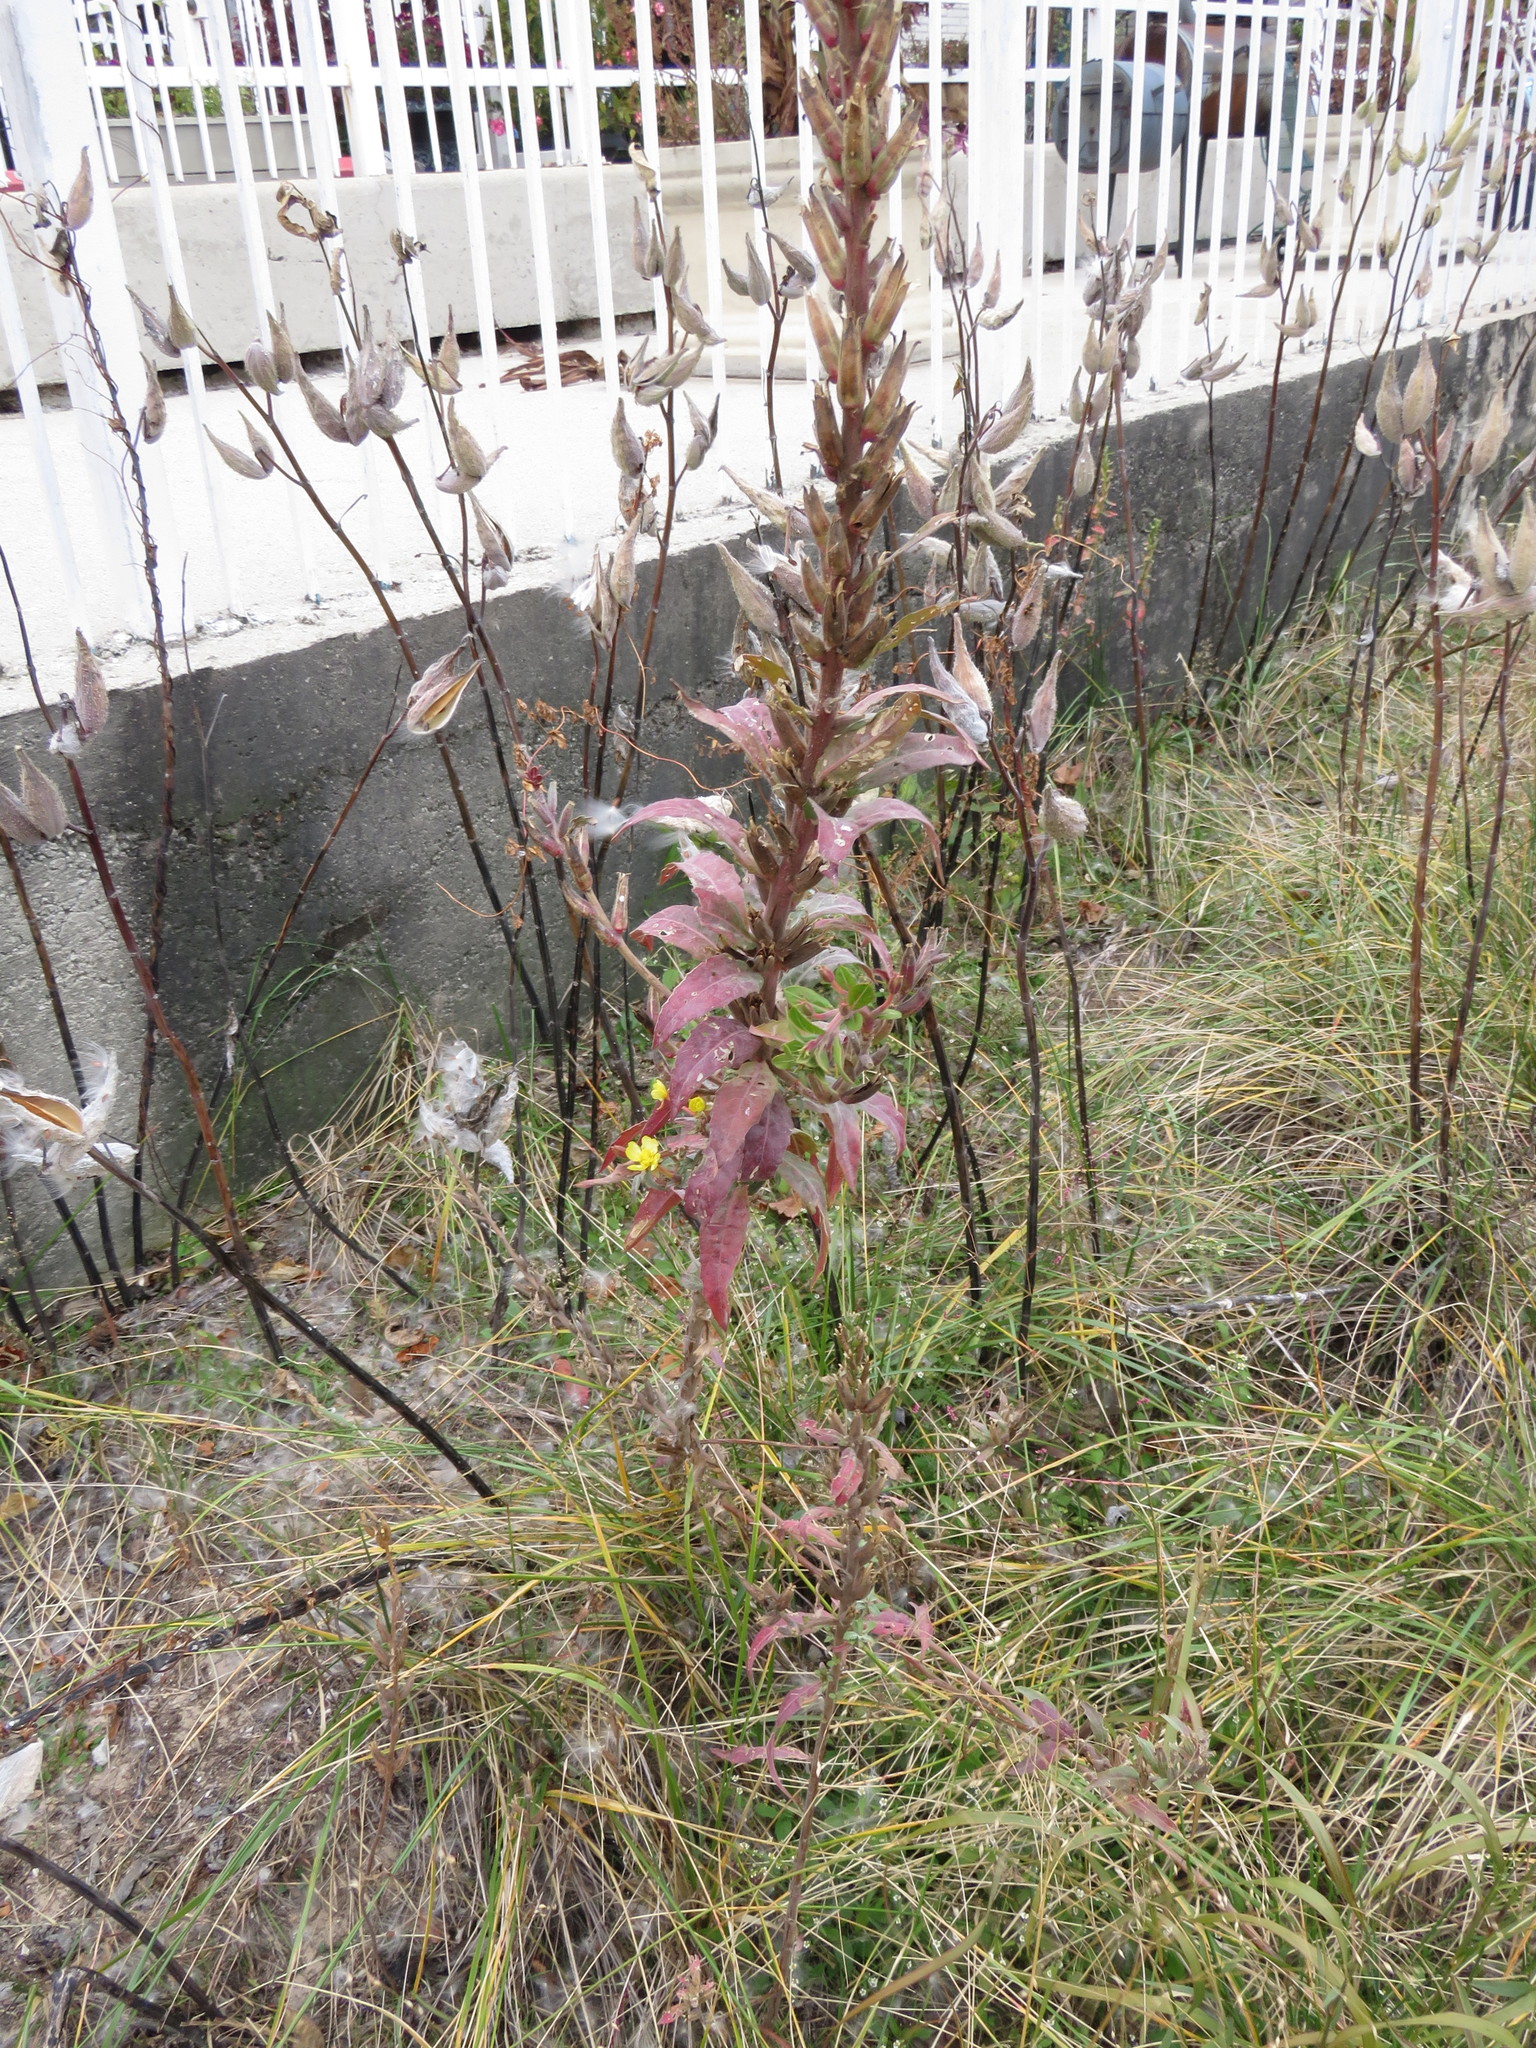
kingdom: Plantae
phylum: Tracheophyta
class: Magnoliopsida
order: Myrtales
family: Onagraceae
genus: Oenothera
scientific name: Oenothera biennis
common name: Common evening-primrose
